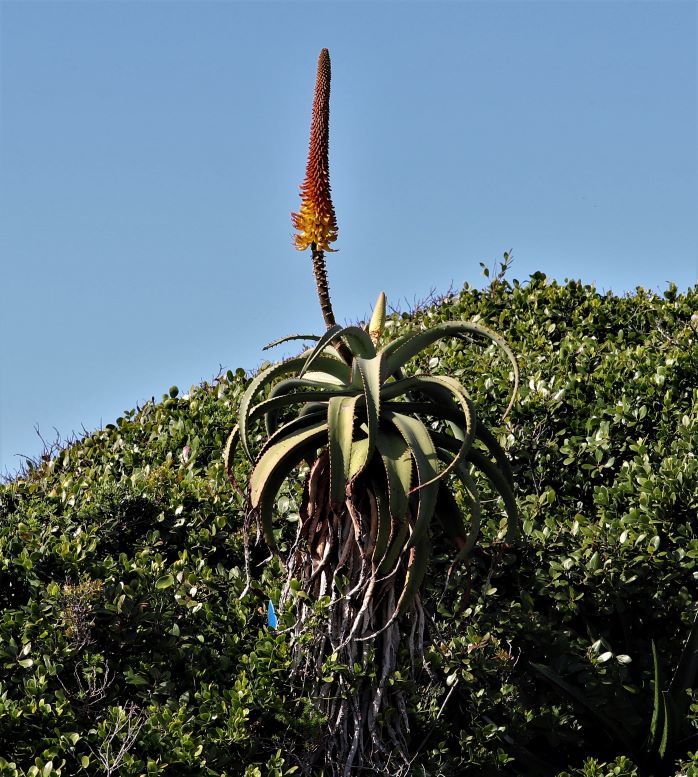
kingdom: Plantae
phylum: Tracheophyta
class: Liliopsida
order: Asparagales
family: Asphodelaceae
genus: Aloe
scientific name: Aloe africana
